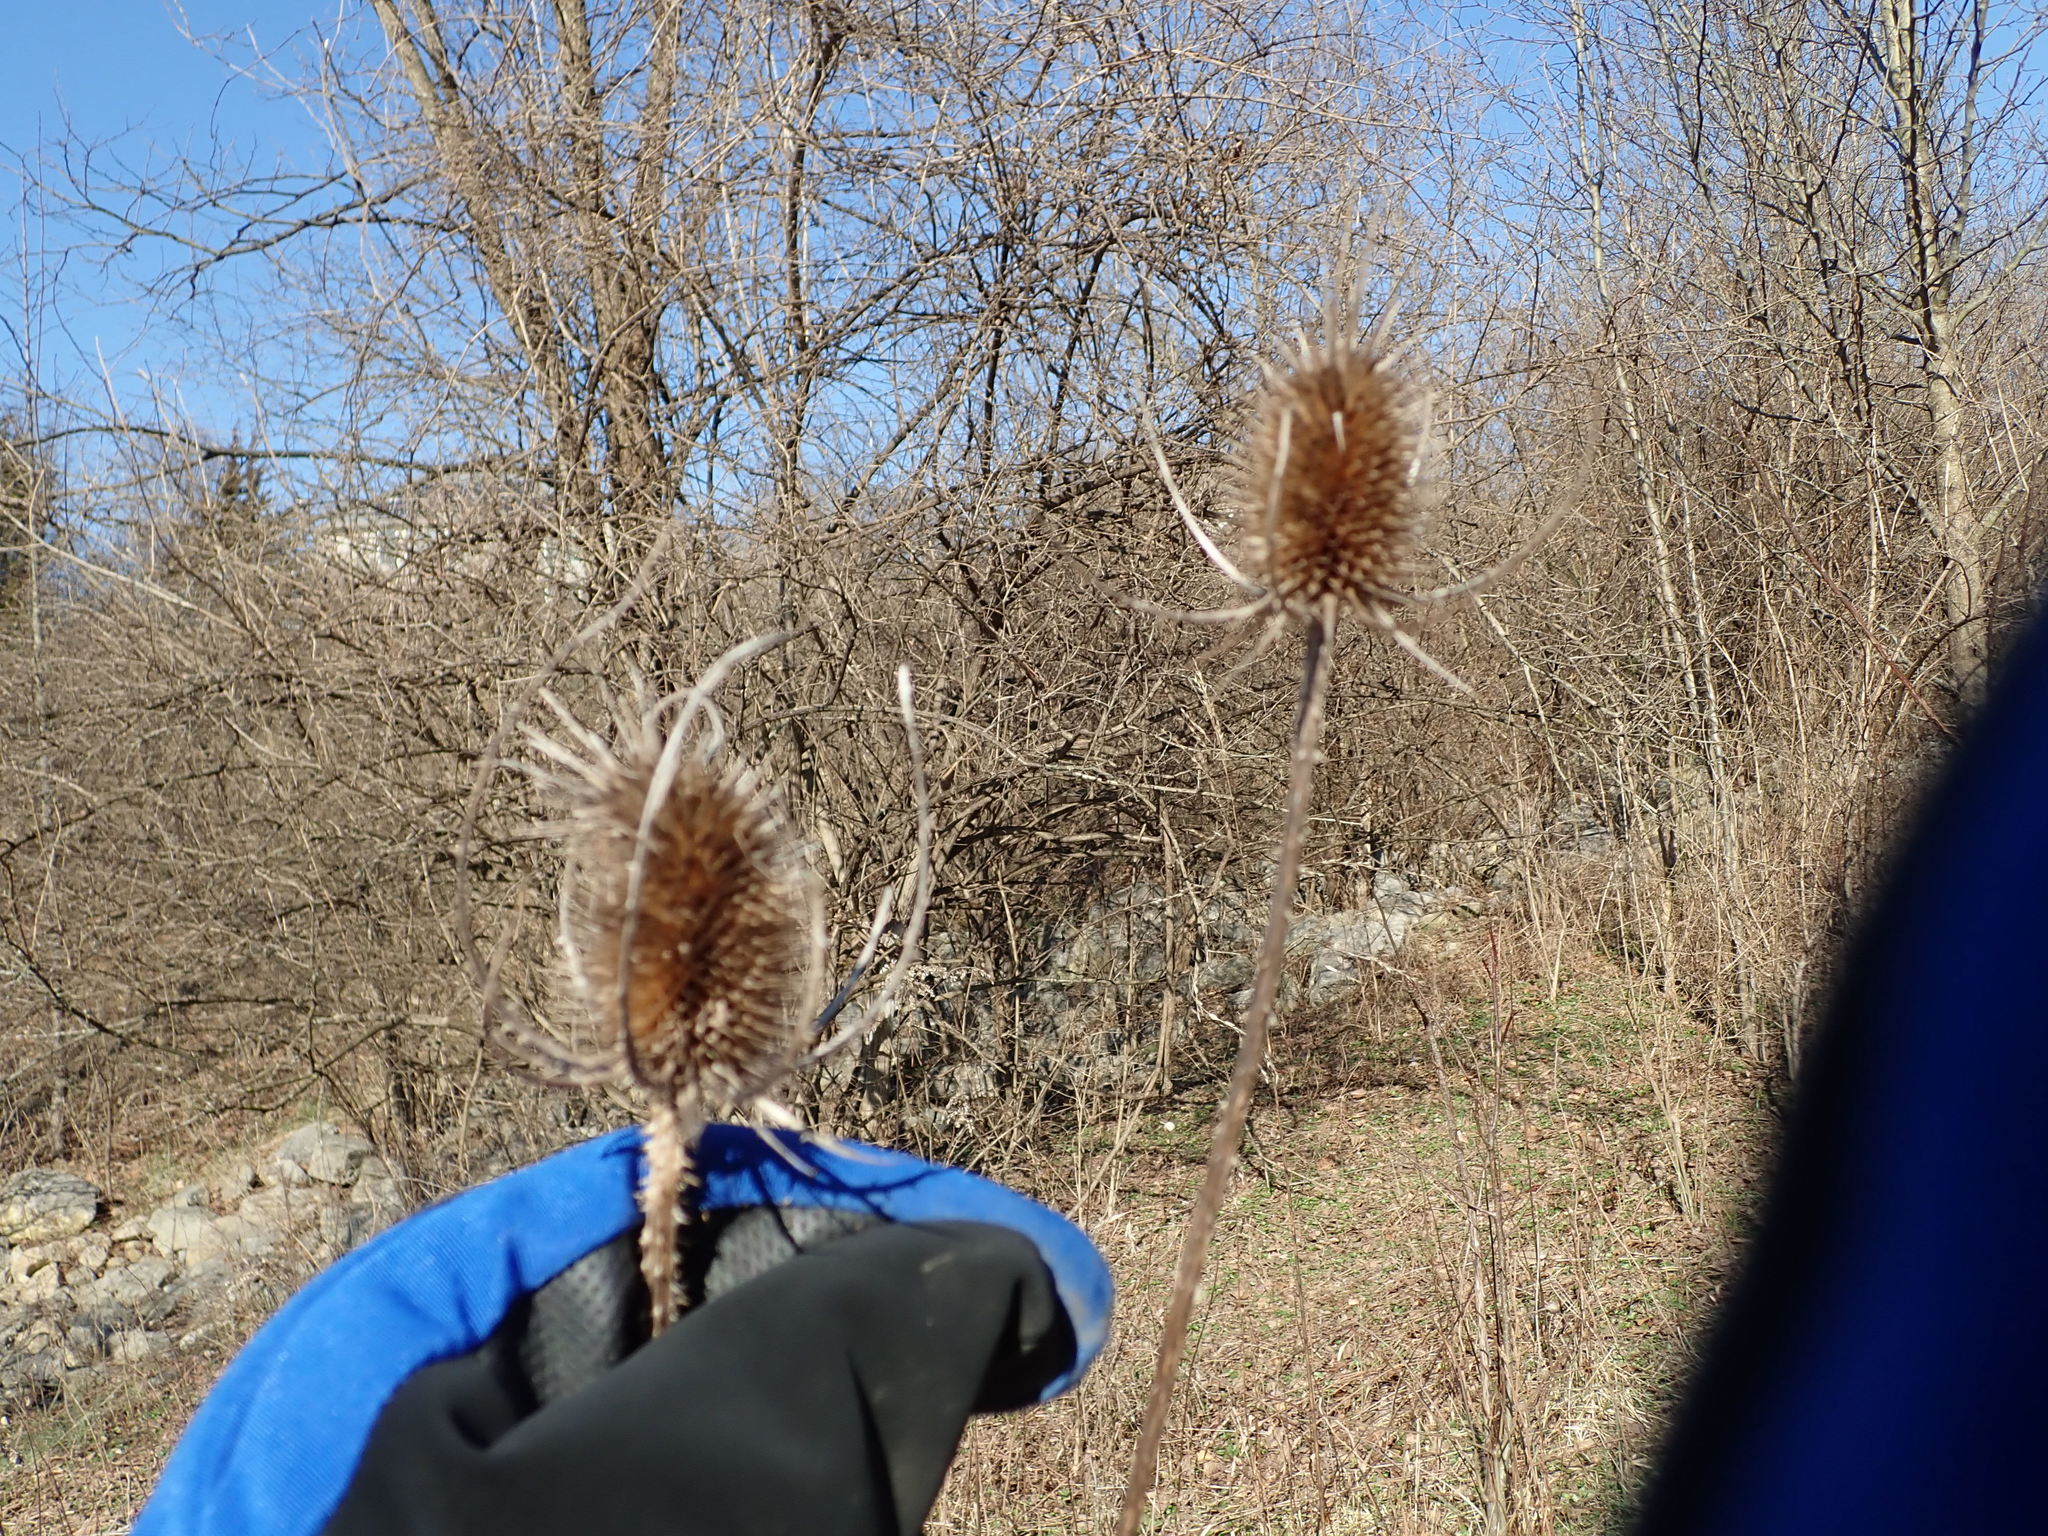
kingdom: Plantae
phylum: Tracheophyta
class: Magnoliopsida
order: Dipsacales
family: Caprifoliaceae
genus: Dipsacus
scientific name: Dipsacus fullonum
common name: Teasel
